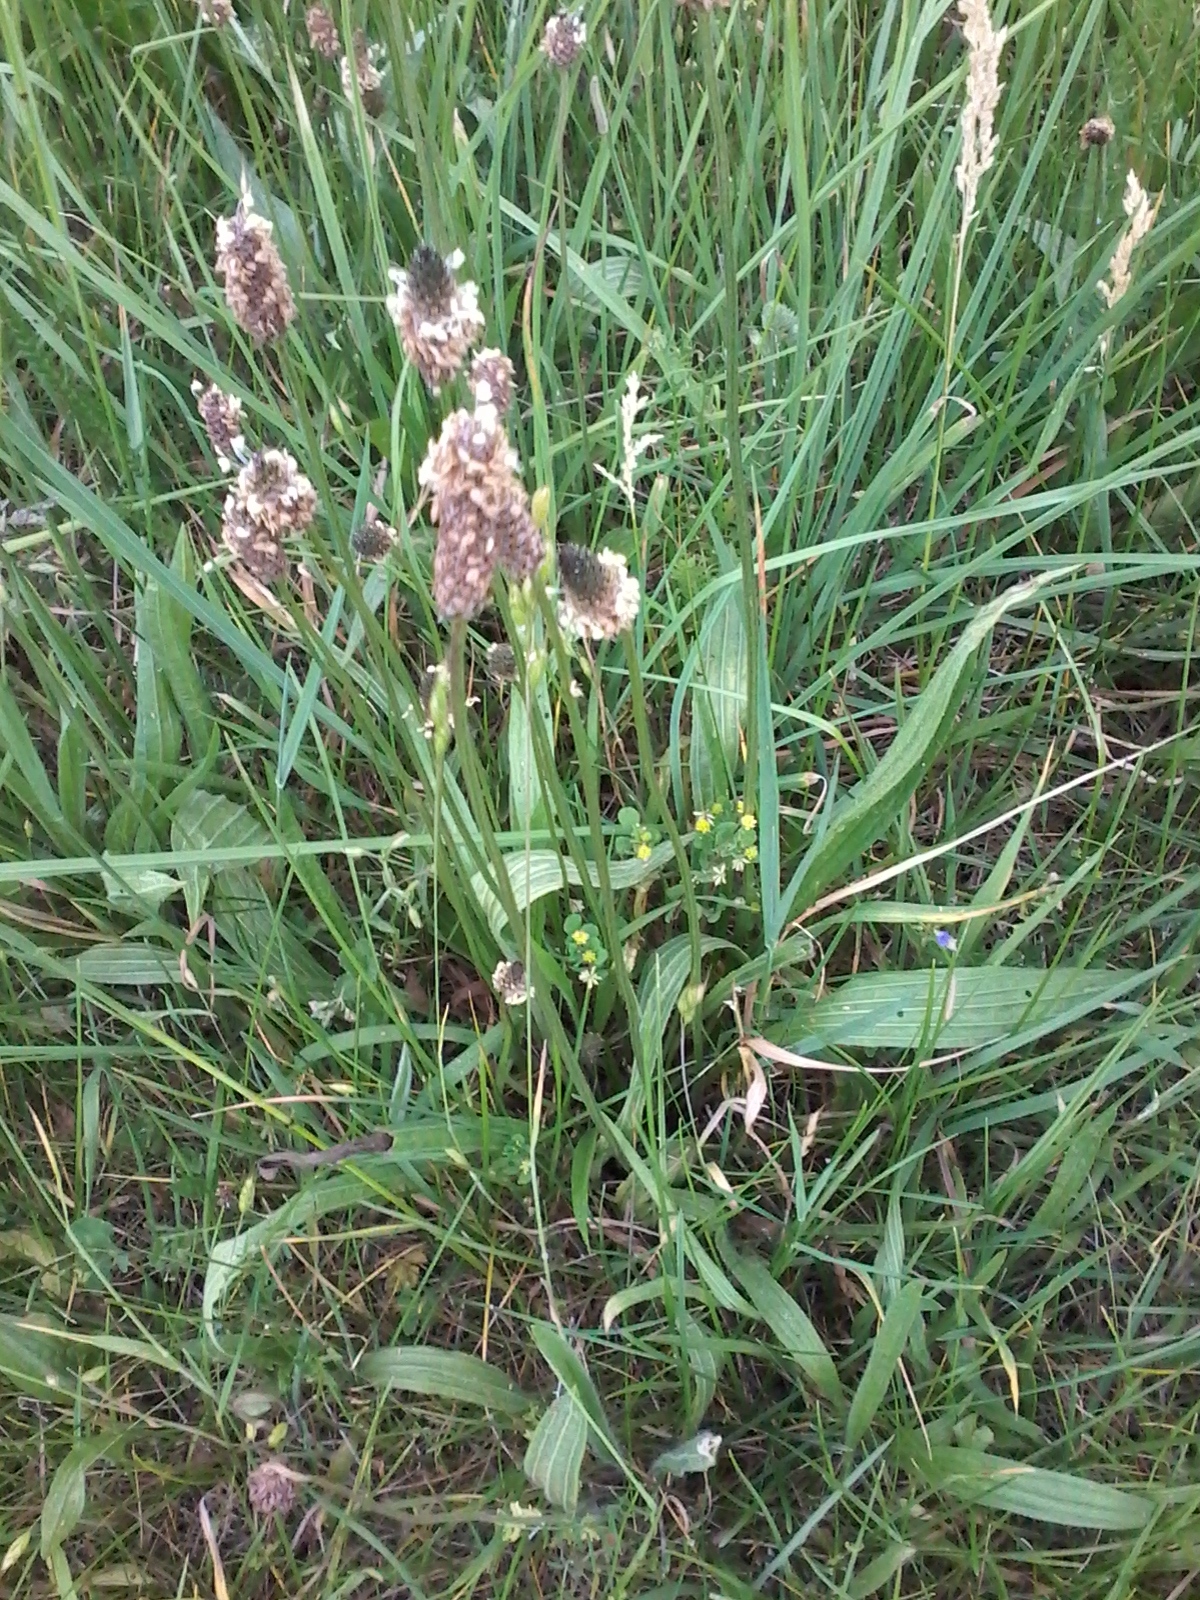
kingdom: Plantae
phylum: Tracheophyta
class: Magnoliopsida
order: Lamiales
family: Plantaginaceae
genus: Plantago
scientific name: Plantago lanceolata
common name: Ribwort plantain
